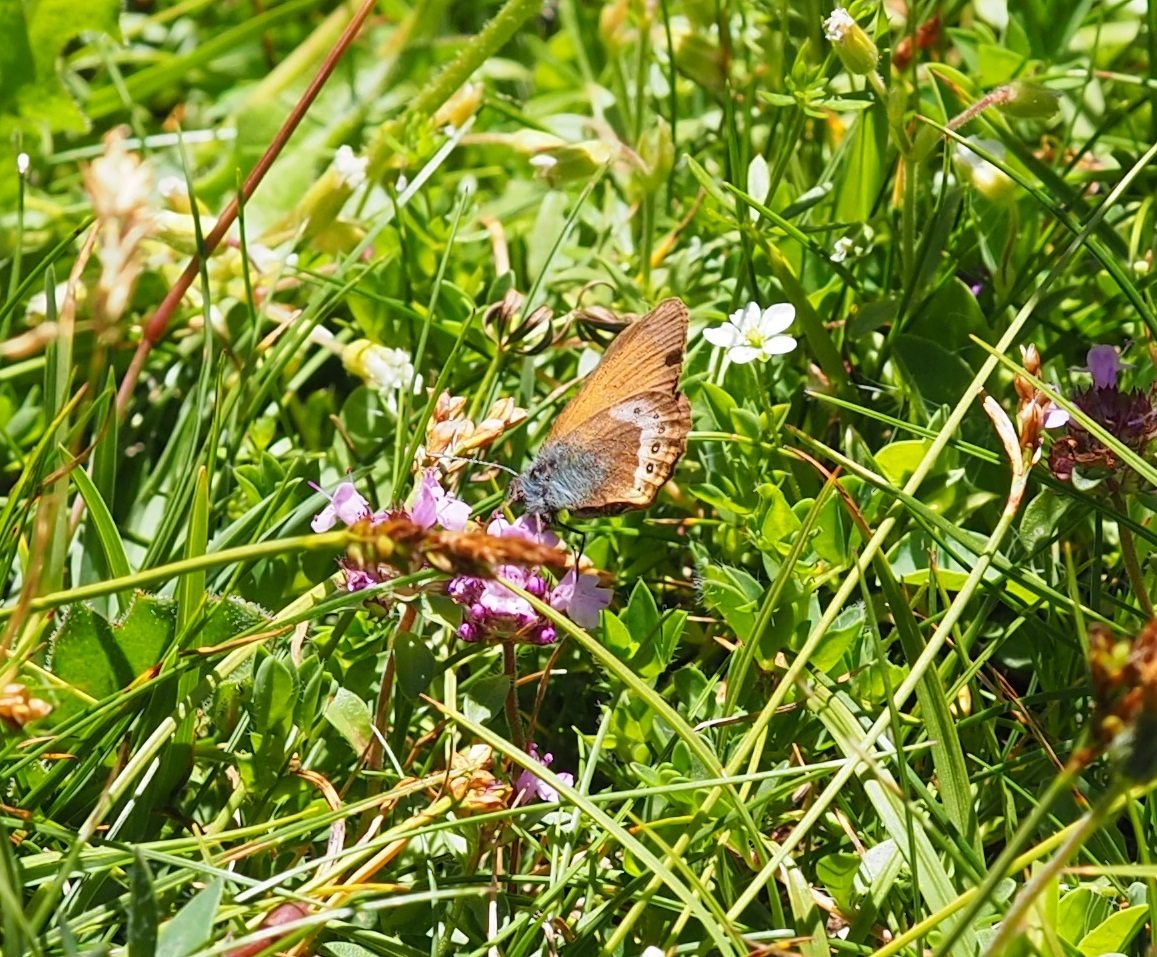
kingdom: Animalia
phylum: Arthropoda
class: Insecta
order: Lepidoptera
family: Nymphalidae
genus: Coenonympha
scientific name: Coenonympha
